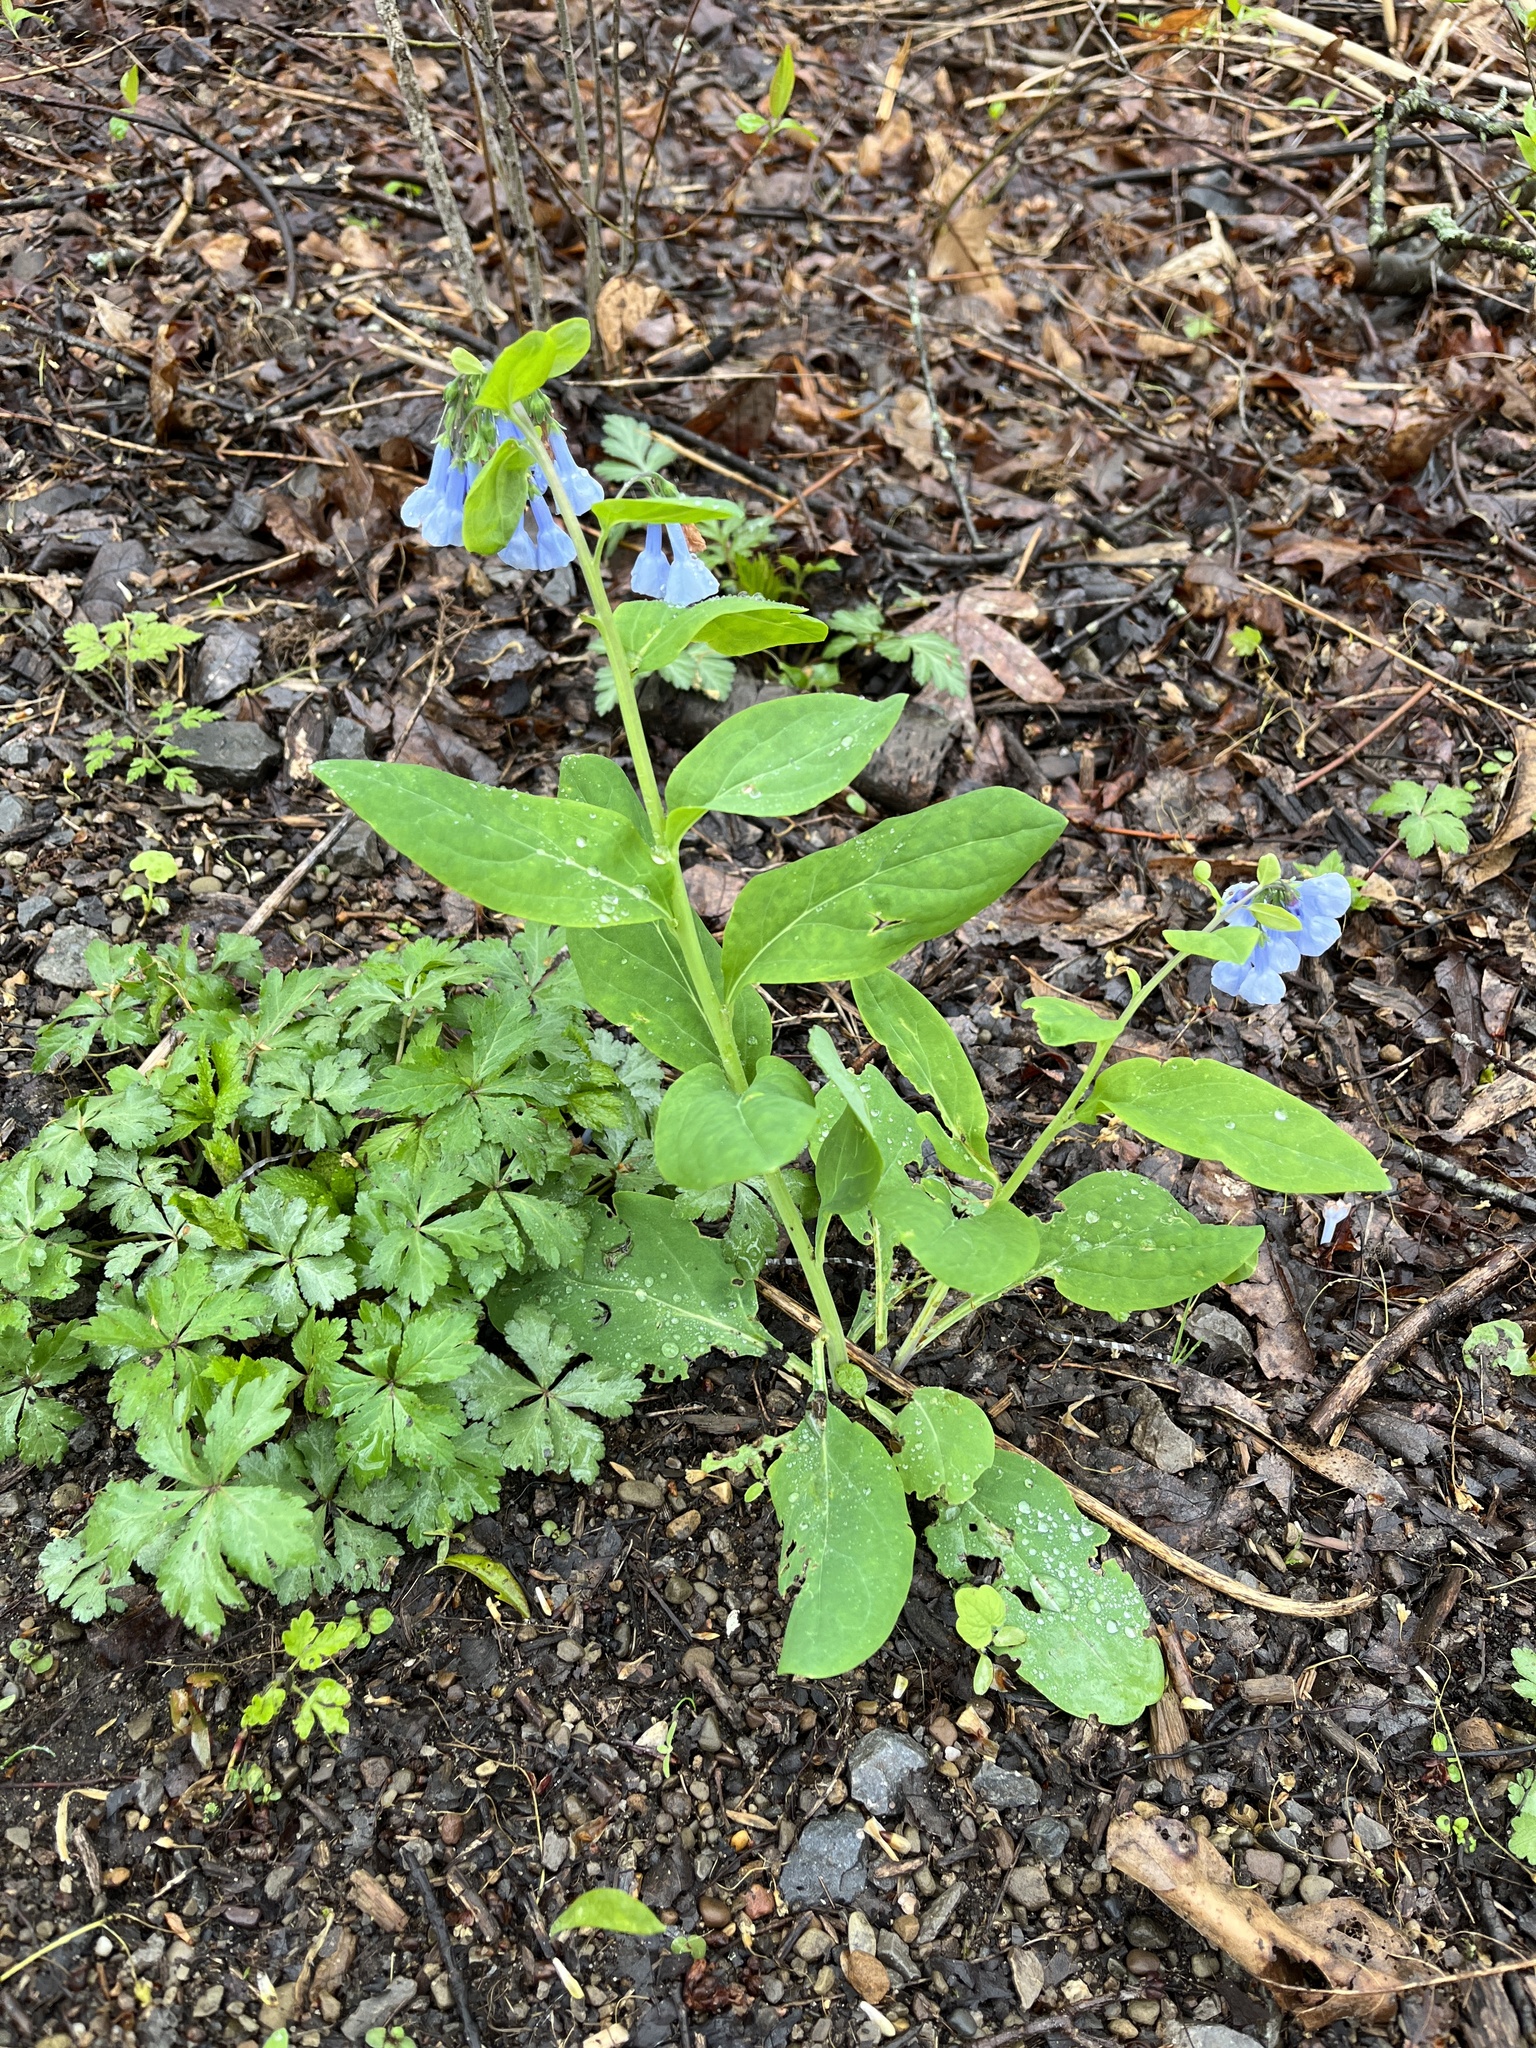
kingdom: Plantae
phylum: Tracheophyta
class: Magnoliopsida
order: Boraginales
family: Boraginaceae
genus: Mertensia
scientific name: Mertensia virginica
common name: Virginia bluebells
